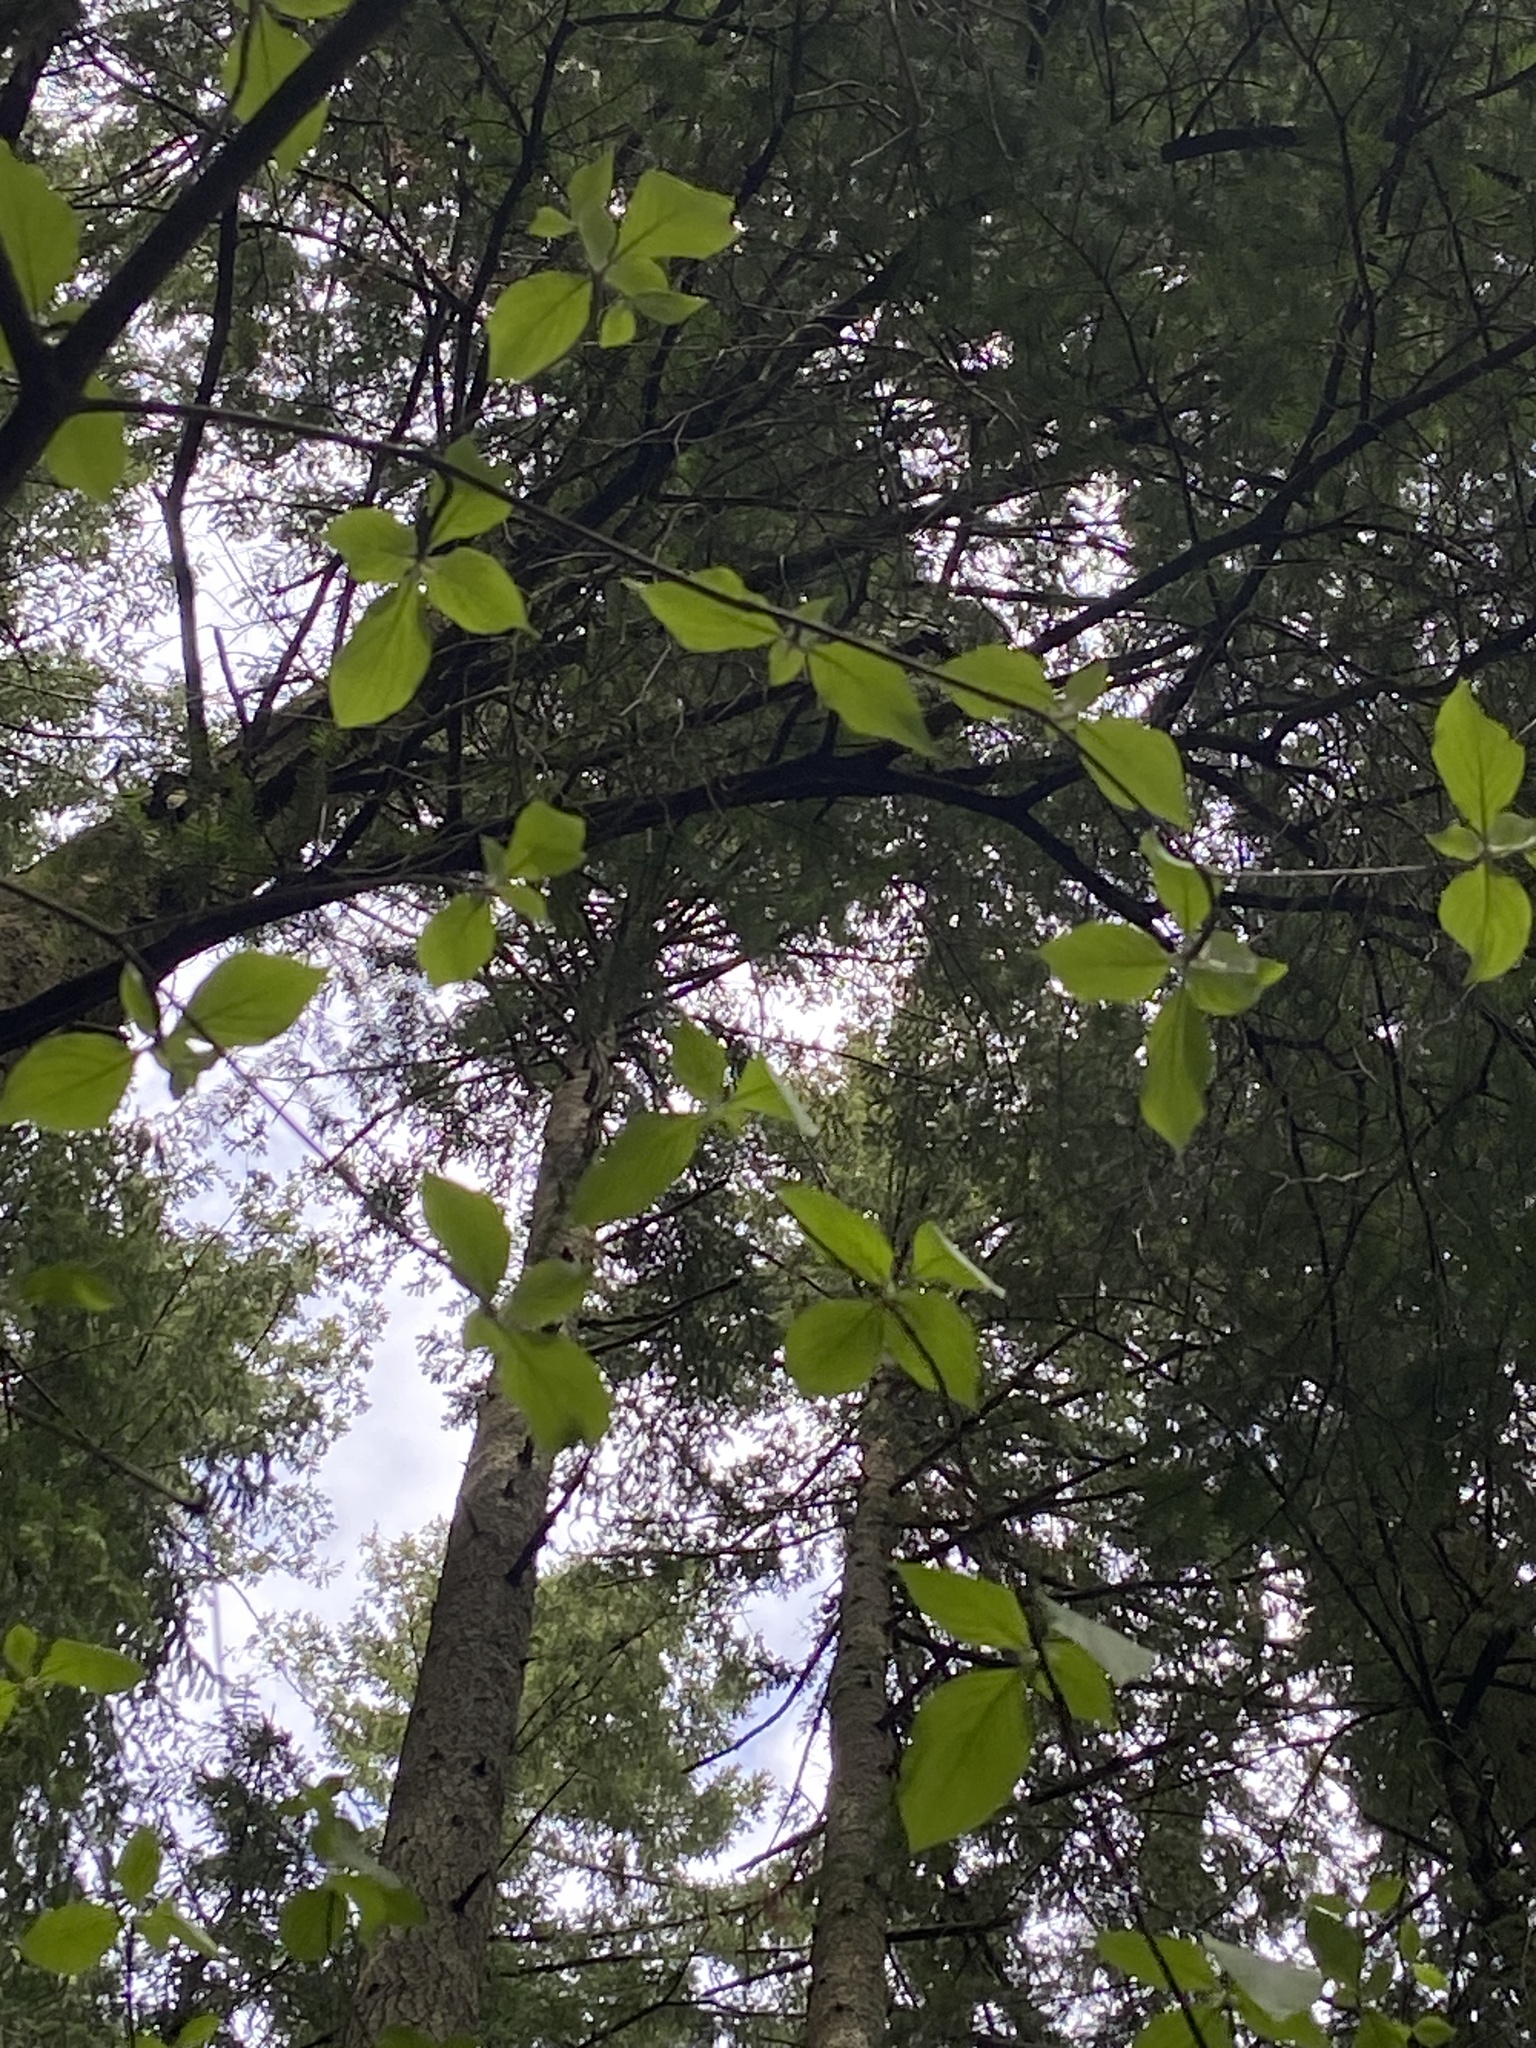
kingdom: Plantae
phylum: Tracheophyta
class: Magnoliopsida
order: Cornales
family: Cornaceae
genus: Cornus
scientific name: Cornus nuttallii
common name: Pacific dogwood
